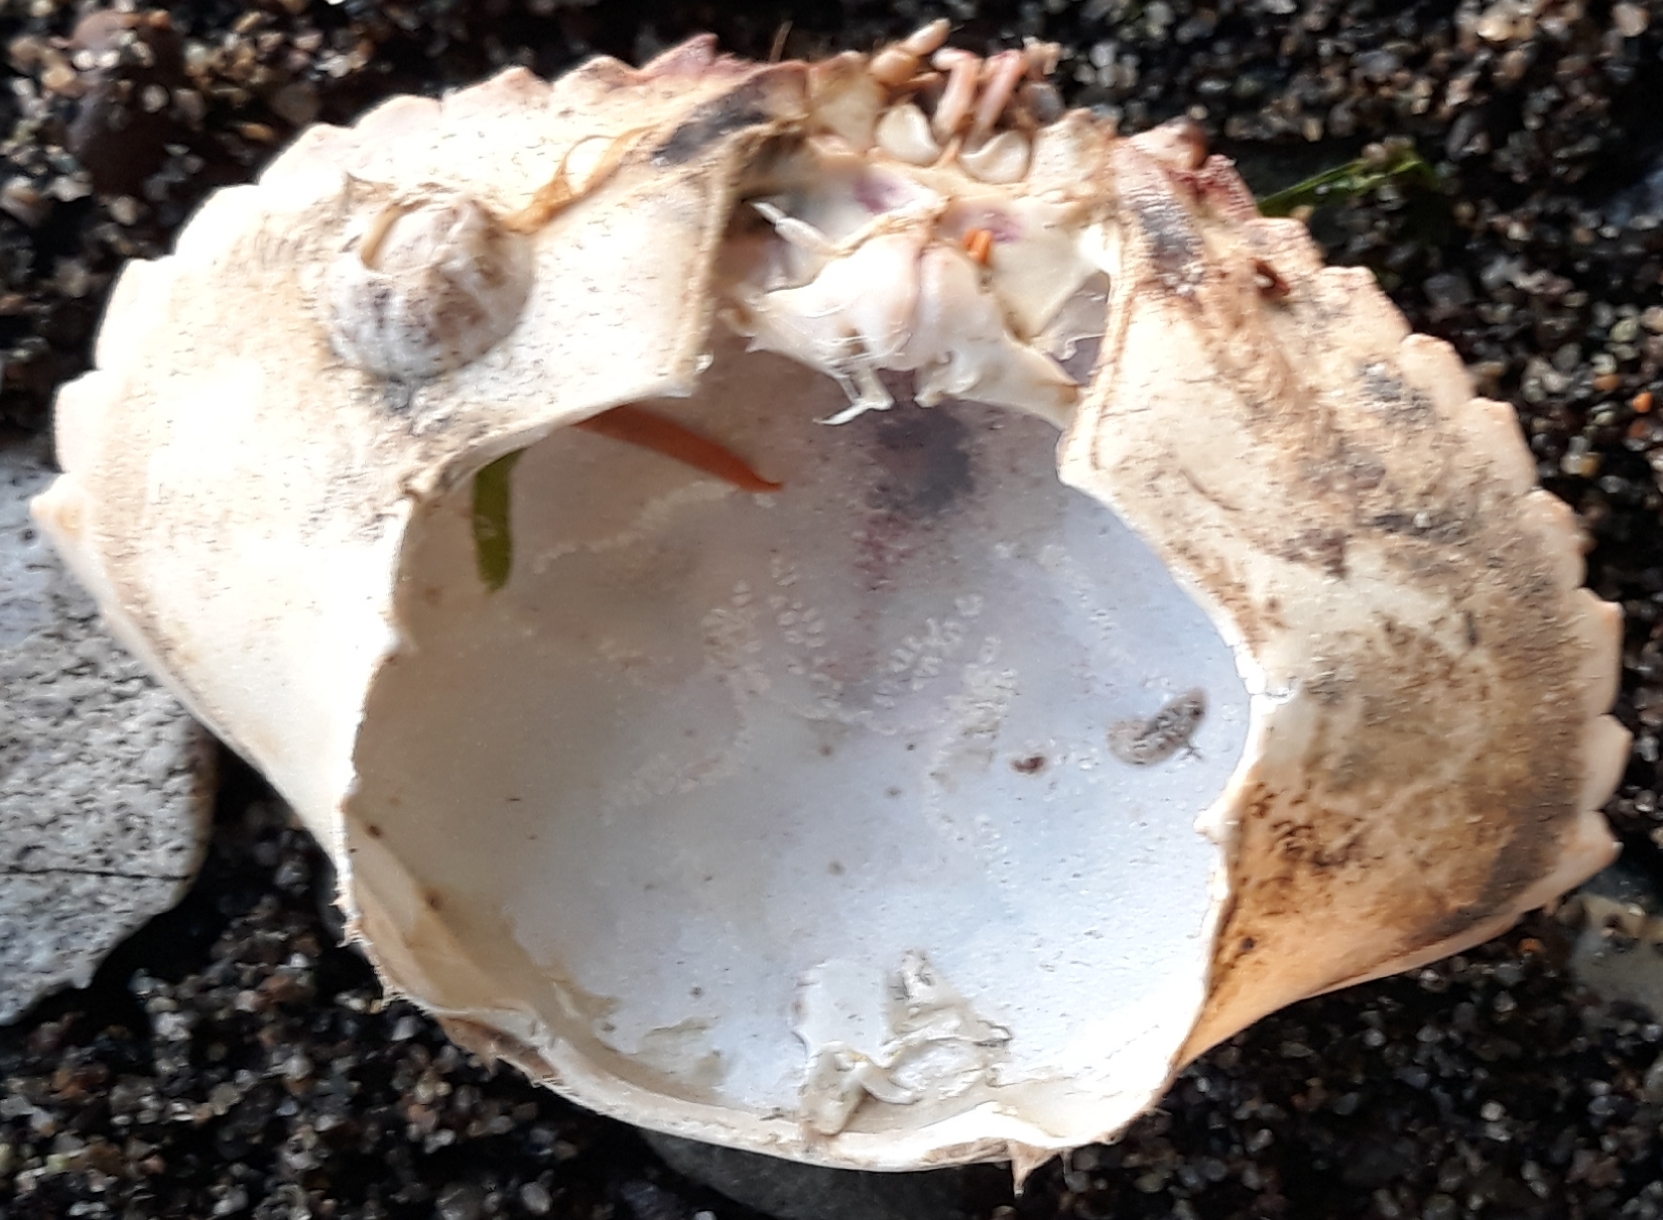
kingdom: Animalia
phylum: Arthropoda
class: Malacostraca
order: Decapoda
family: Cancridae
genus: Metacarcinus
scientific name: Metacarcinus gracilis
